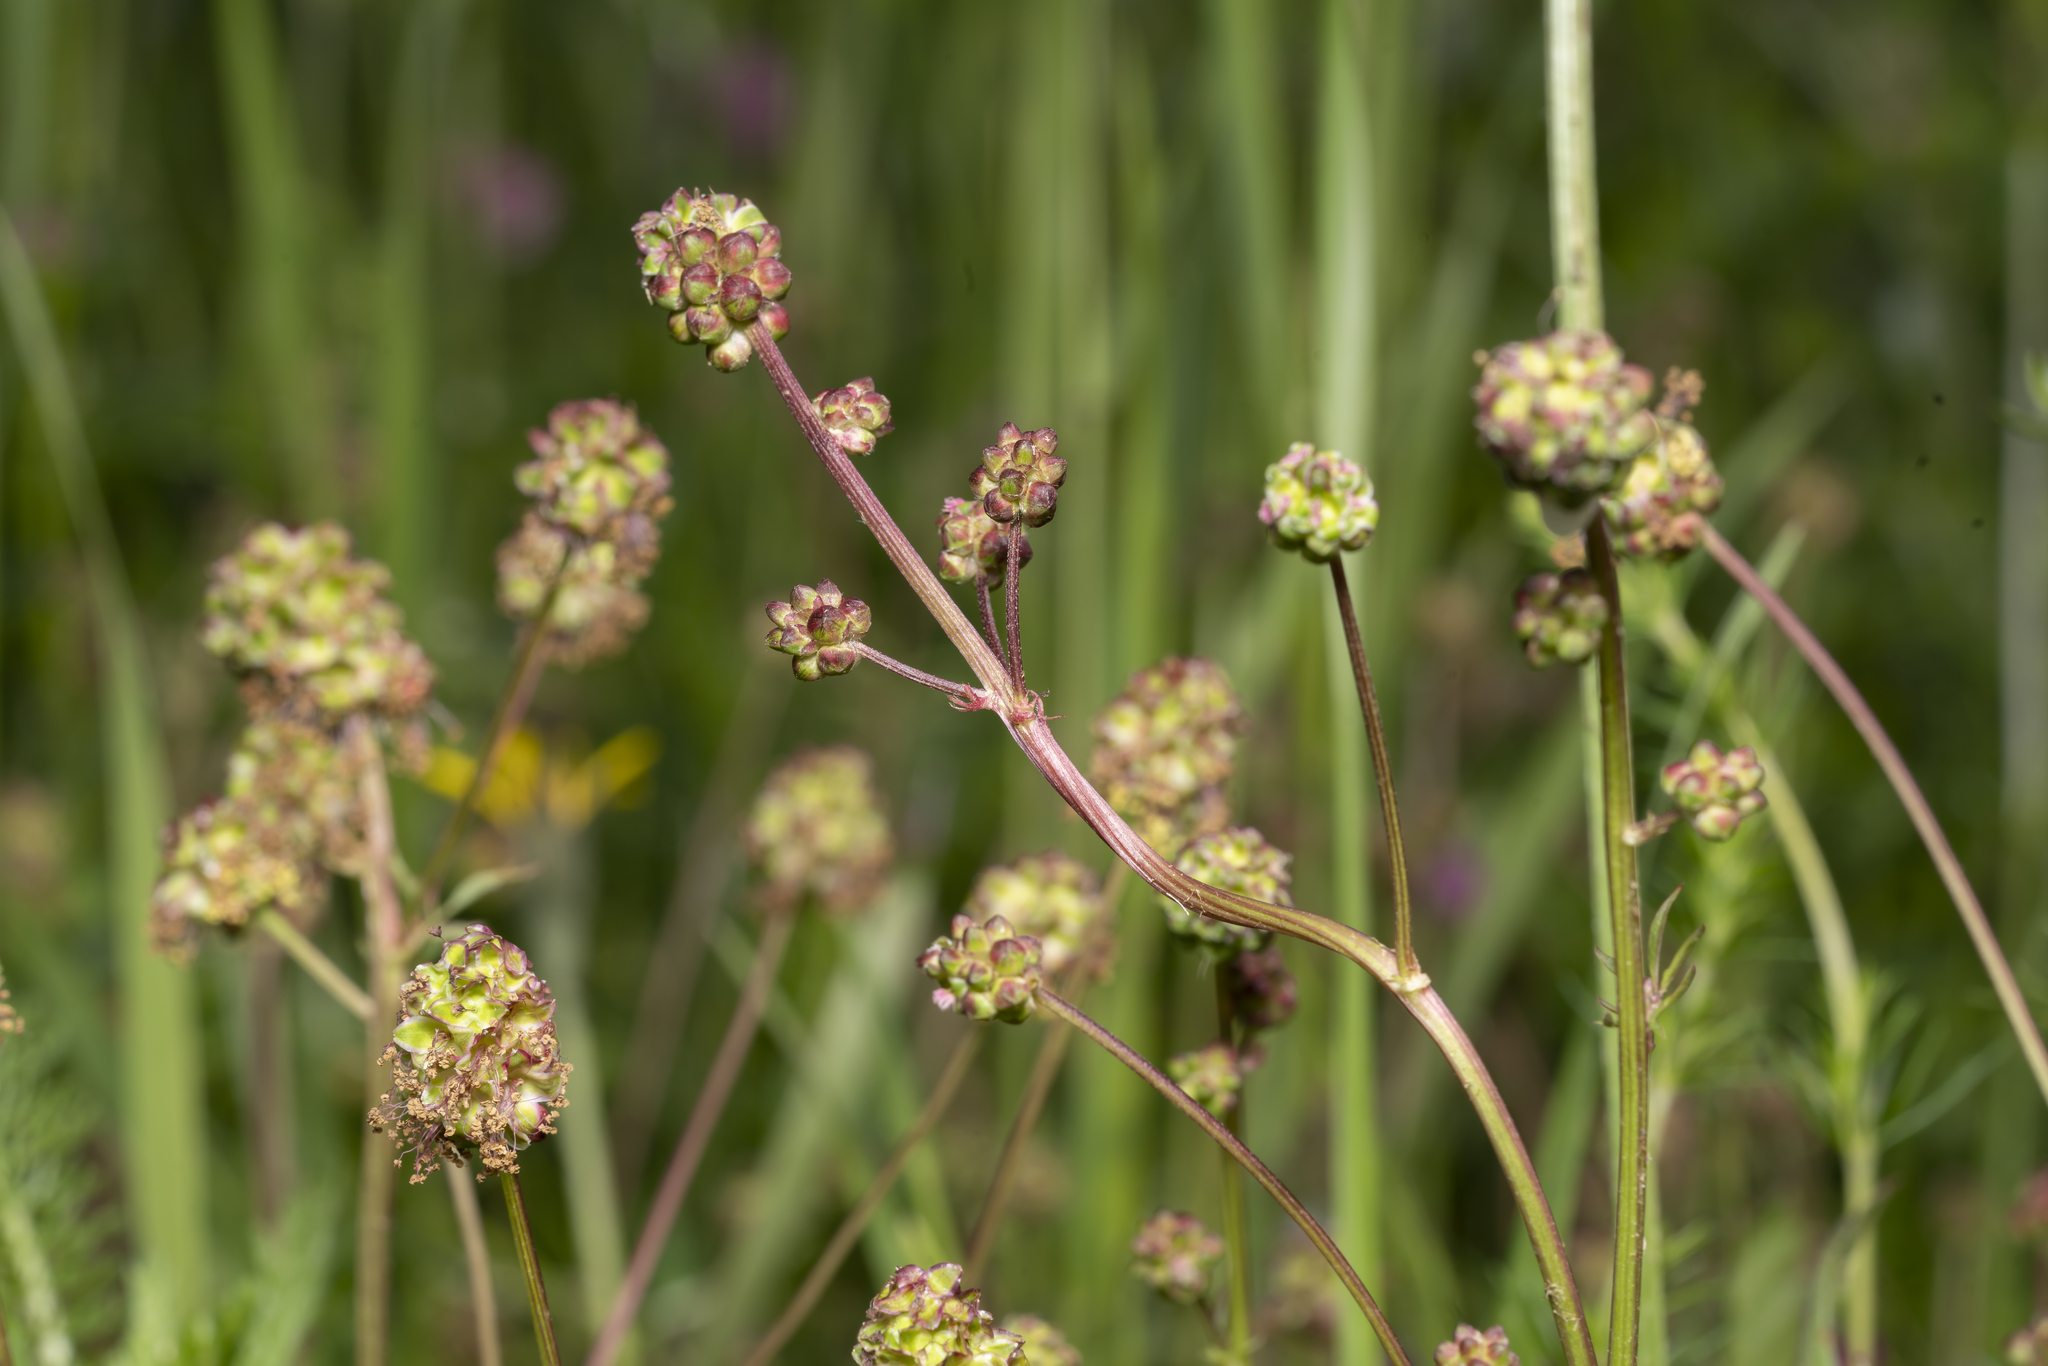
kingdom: Plantae
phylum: Tracheophyta
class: Magnoliopsida
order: Rosales
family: Rosaceae
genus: Poterium
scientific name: Poterium sanguisorba
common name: Salad burnet
